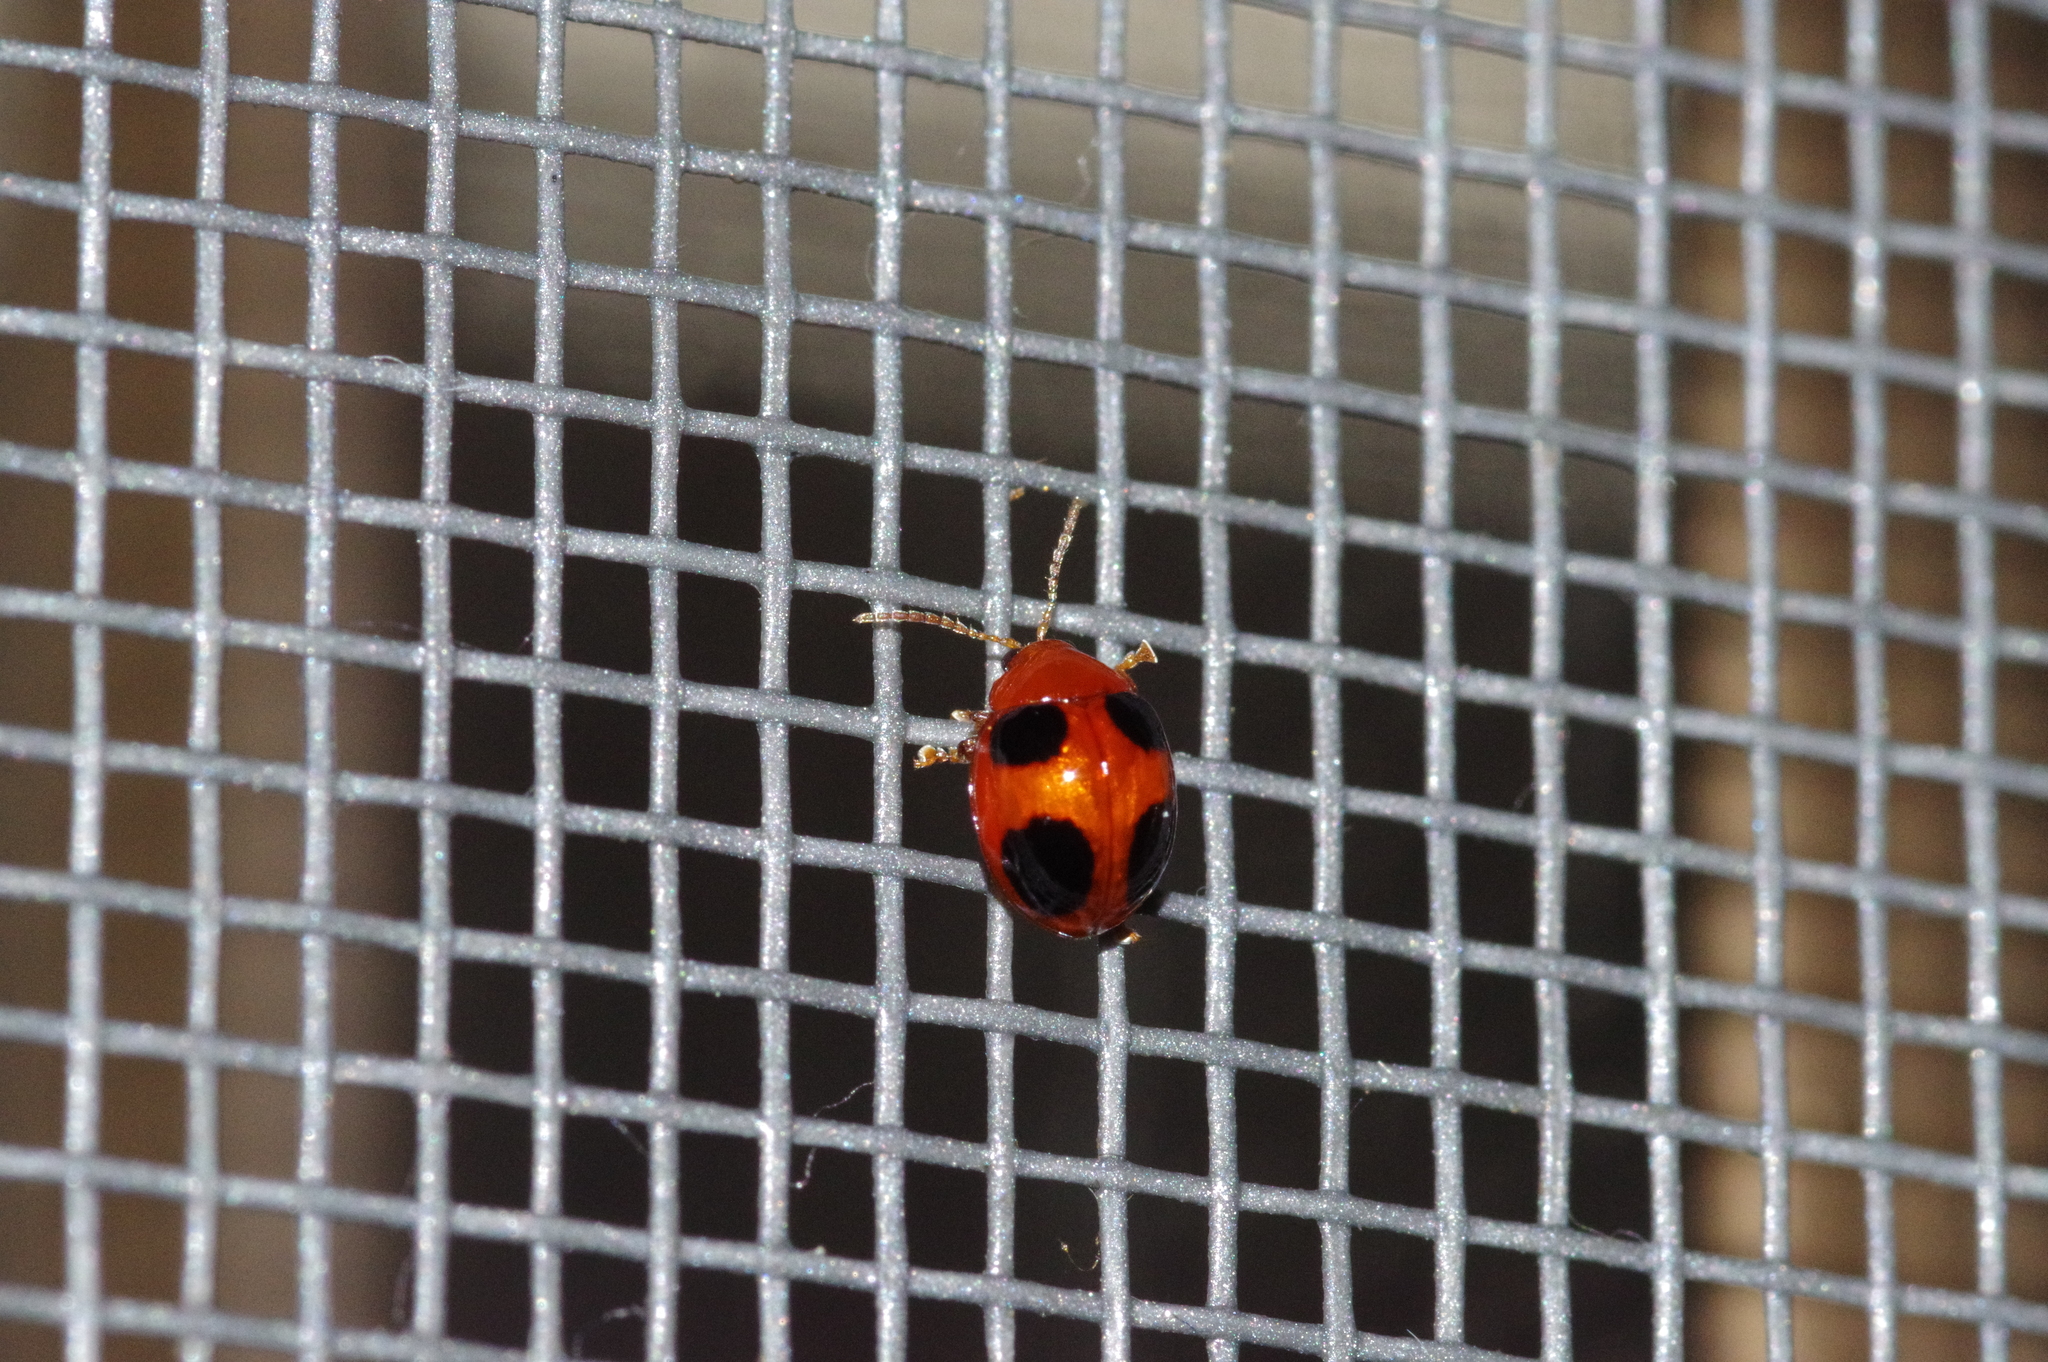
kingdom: Animalia
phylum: Arthropoda
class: Insecta
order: Coleoptera
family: Chrysomelidae
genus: Sphaeroderma
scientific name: Sphaeroderma
